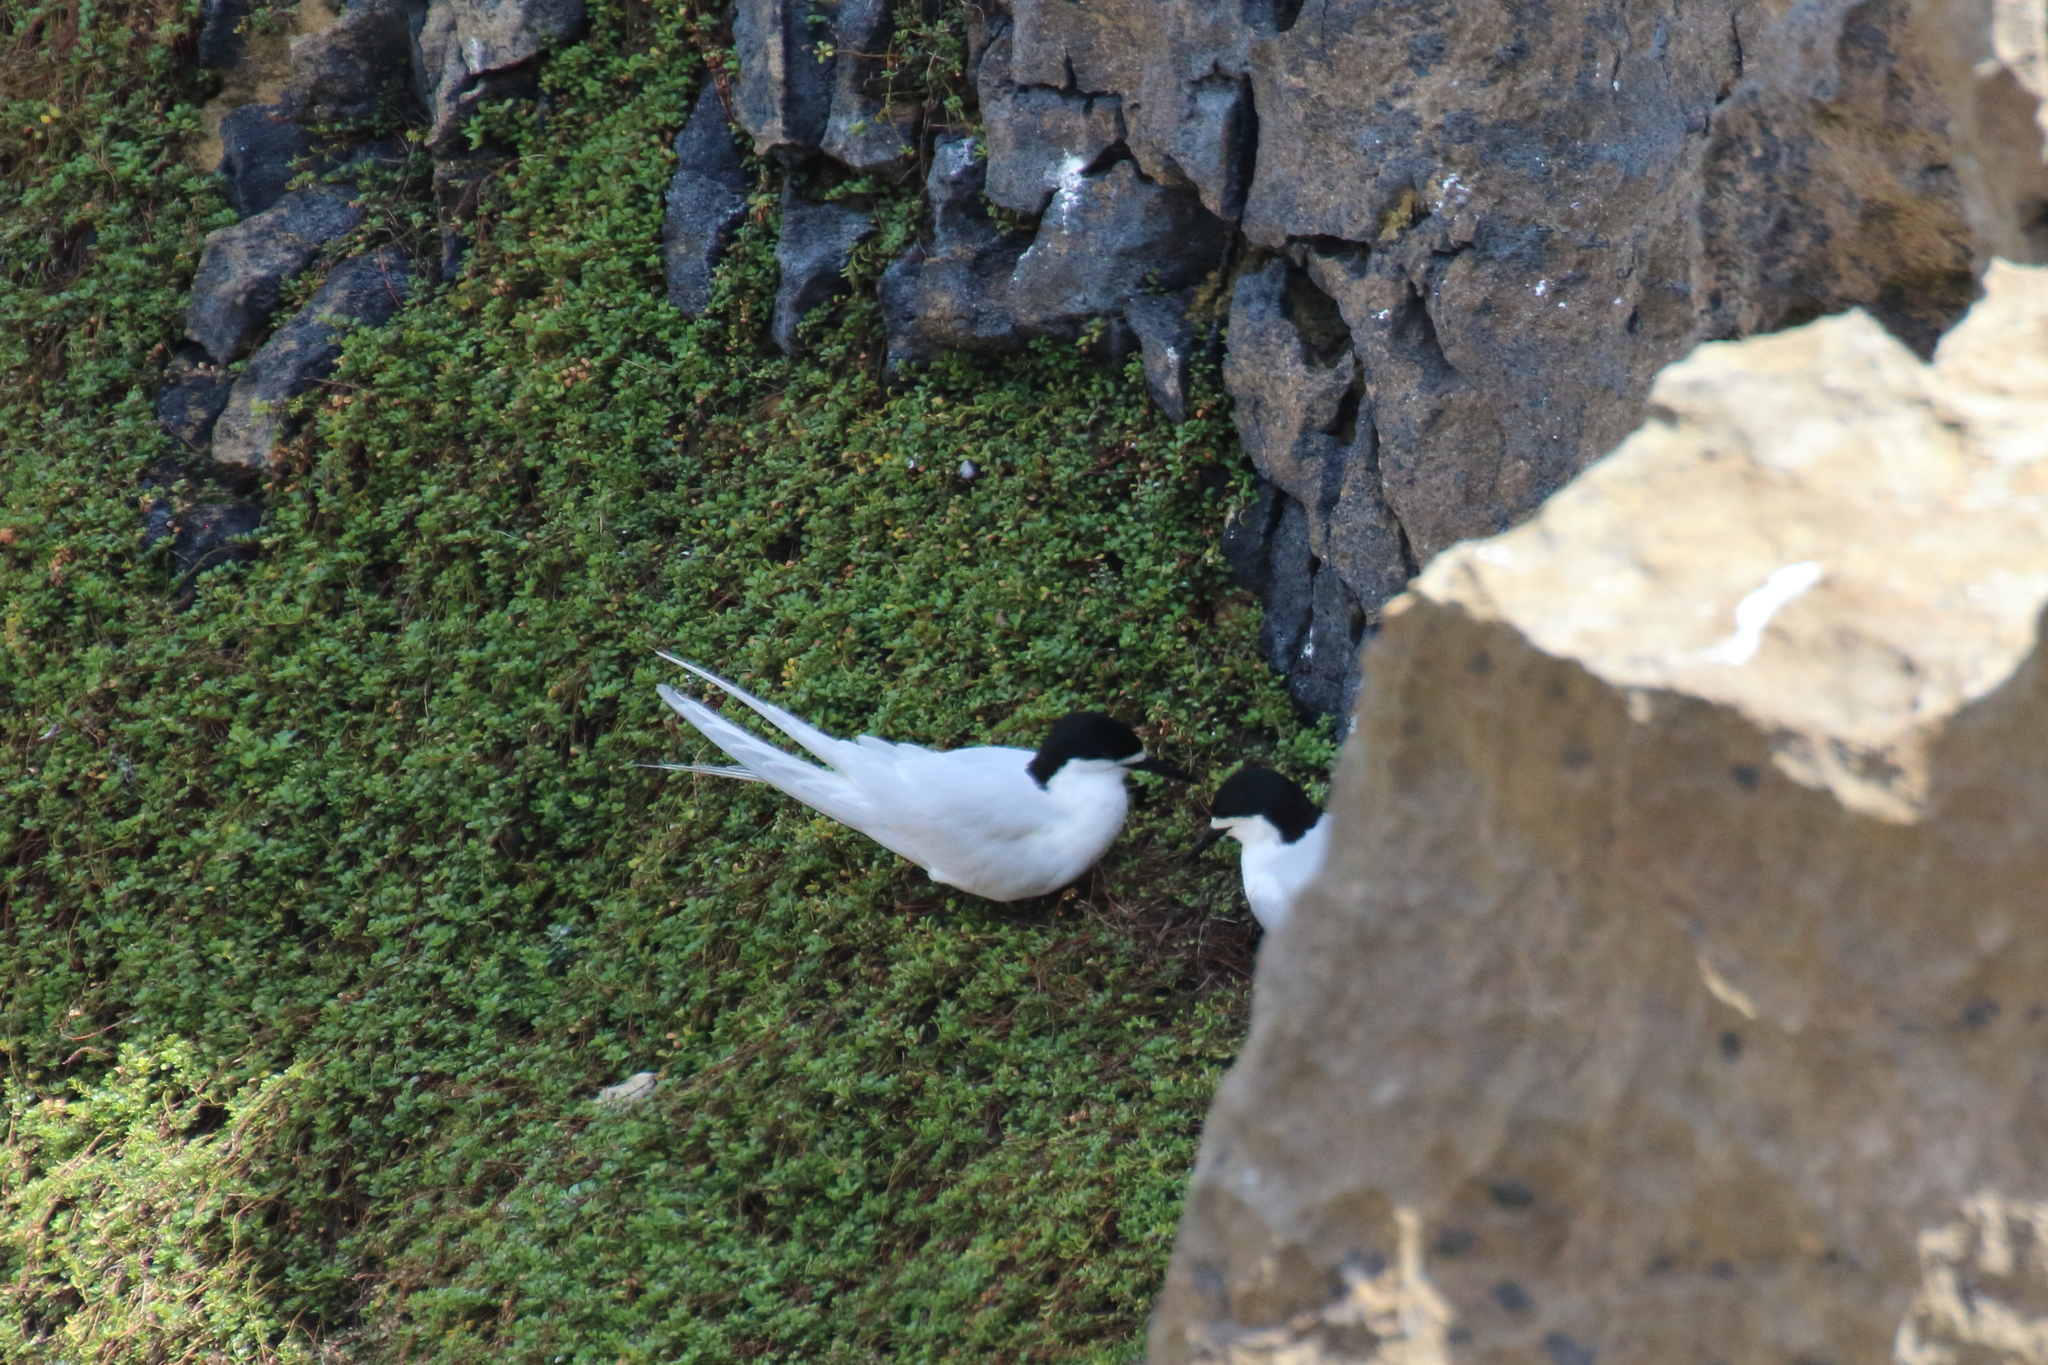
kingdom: Animalia
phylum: Chordata
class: Aves
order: Charadriiformes
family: Laridae
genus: Sterna
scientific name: Sterna striata
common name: White-fronted tern
